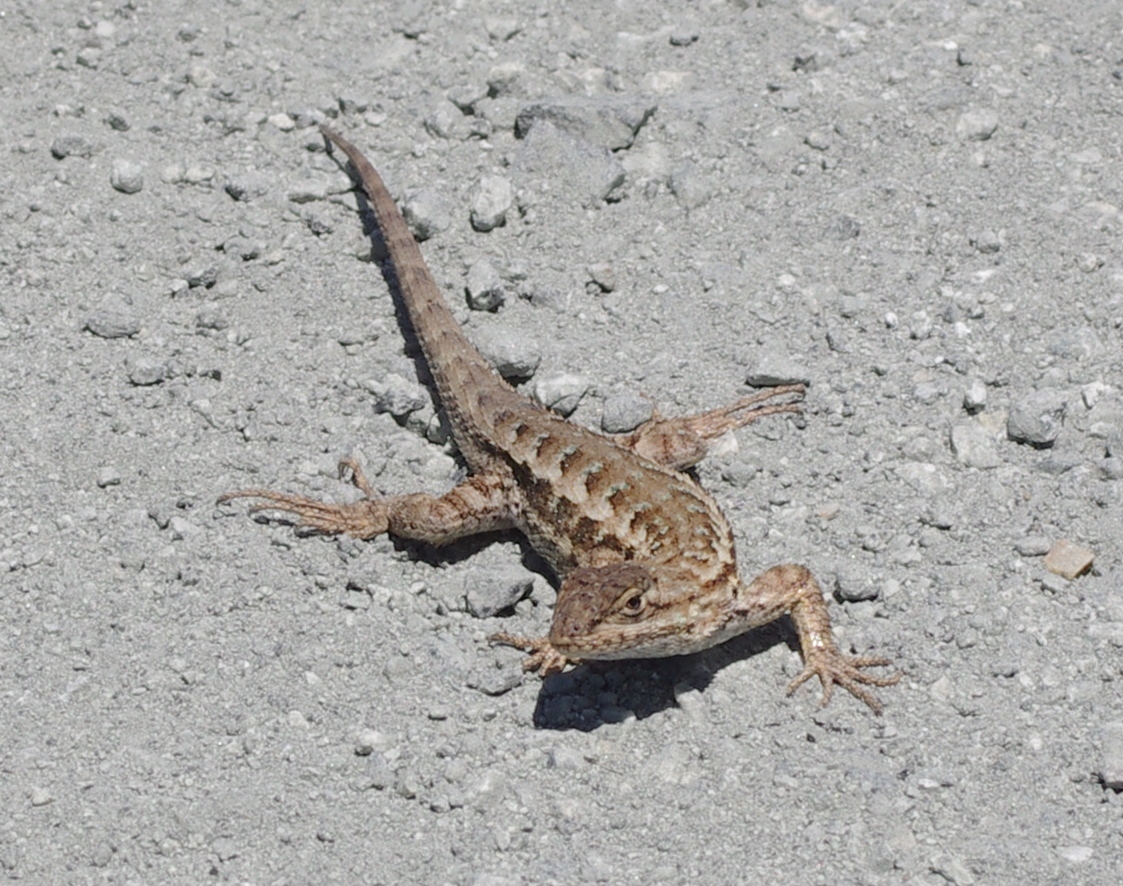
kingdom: Animalia
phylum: Chordata
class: Squamata
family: Phrynosomatidae
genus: Sceloporus
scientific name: Sceloporus occidentalis
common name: Western fence lizard
